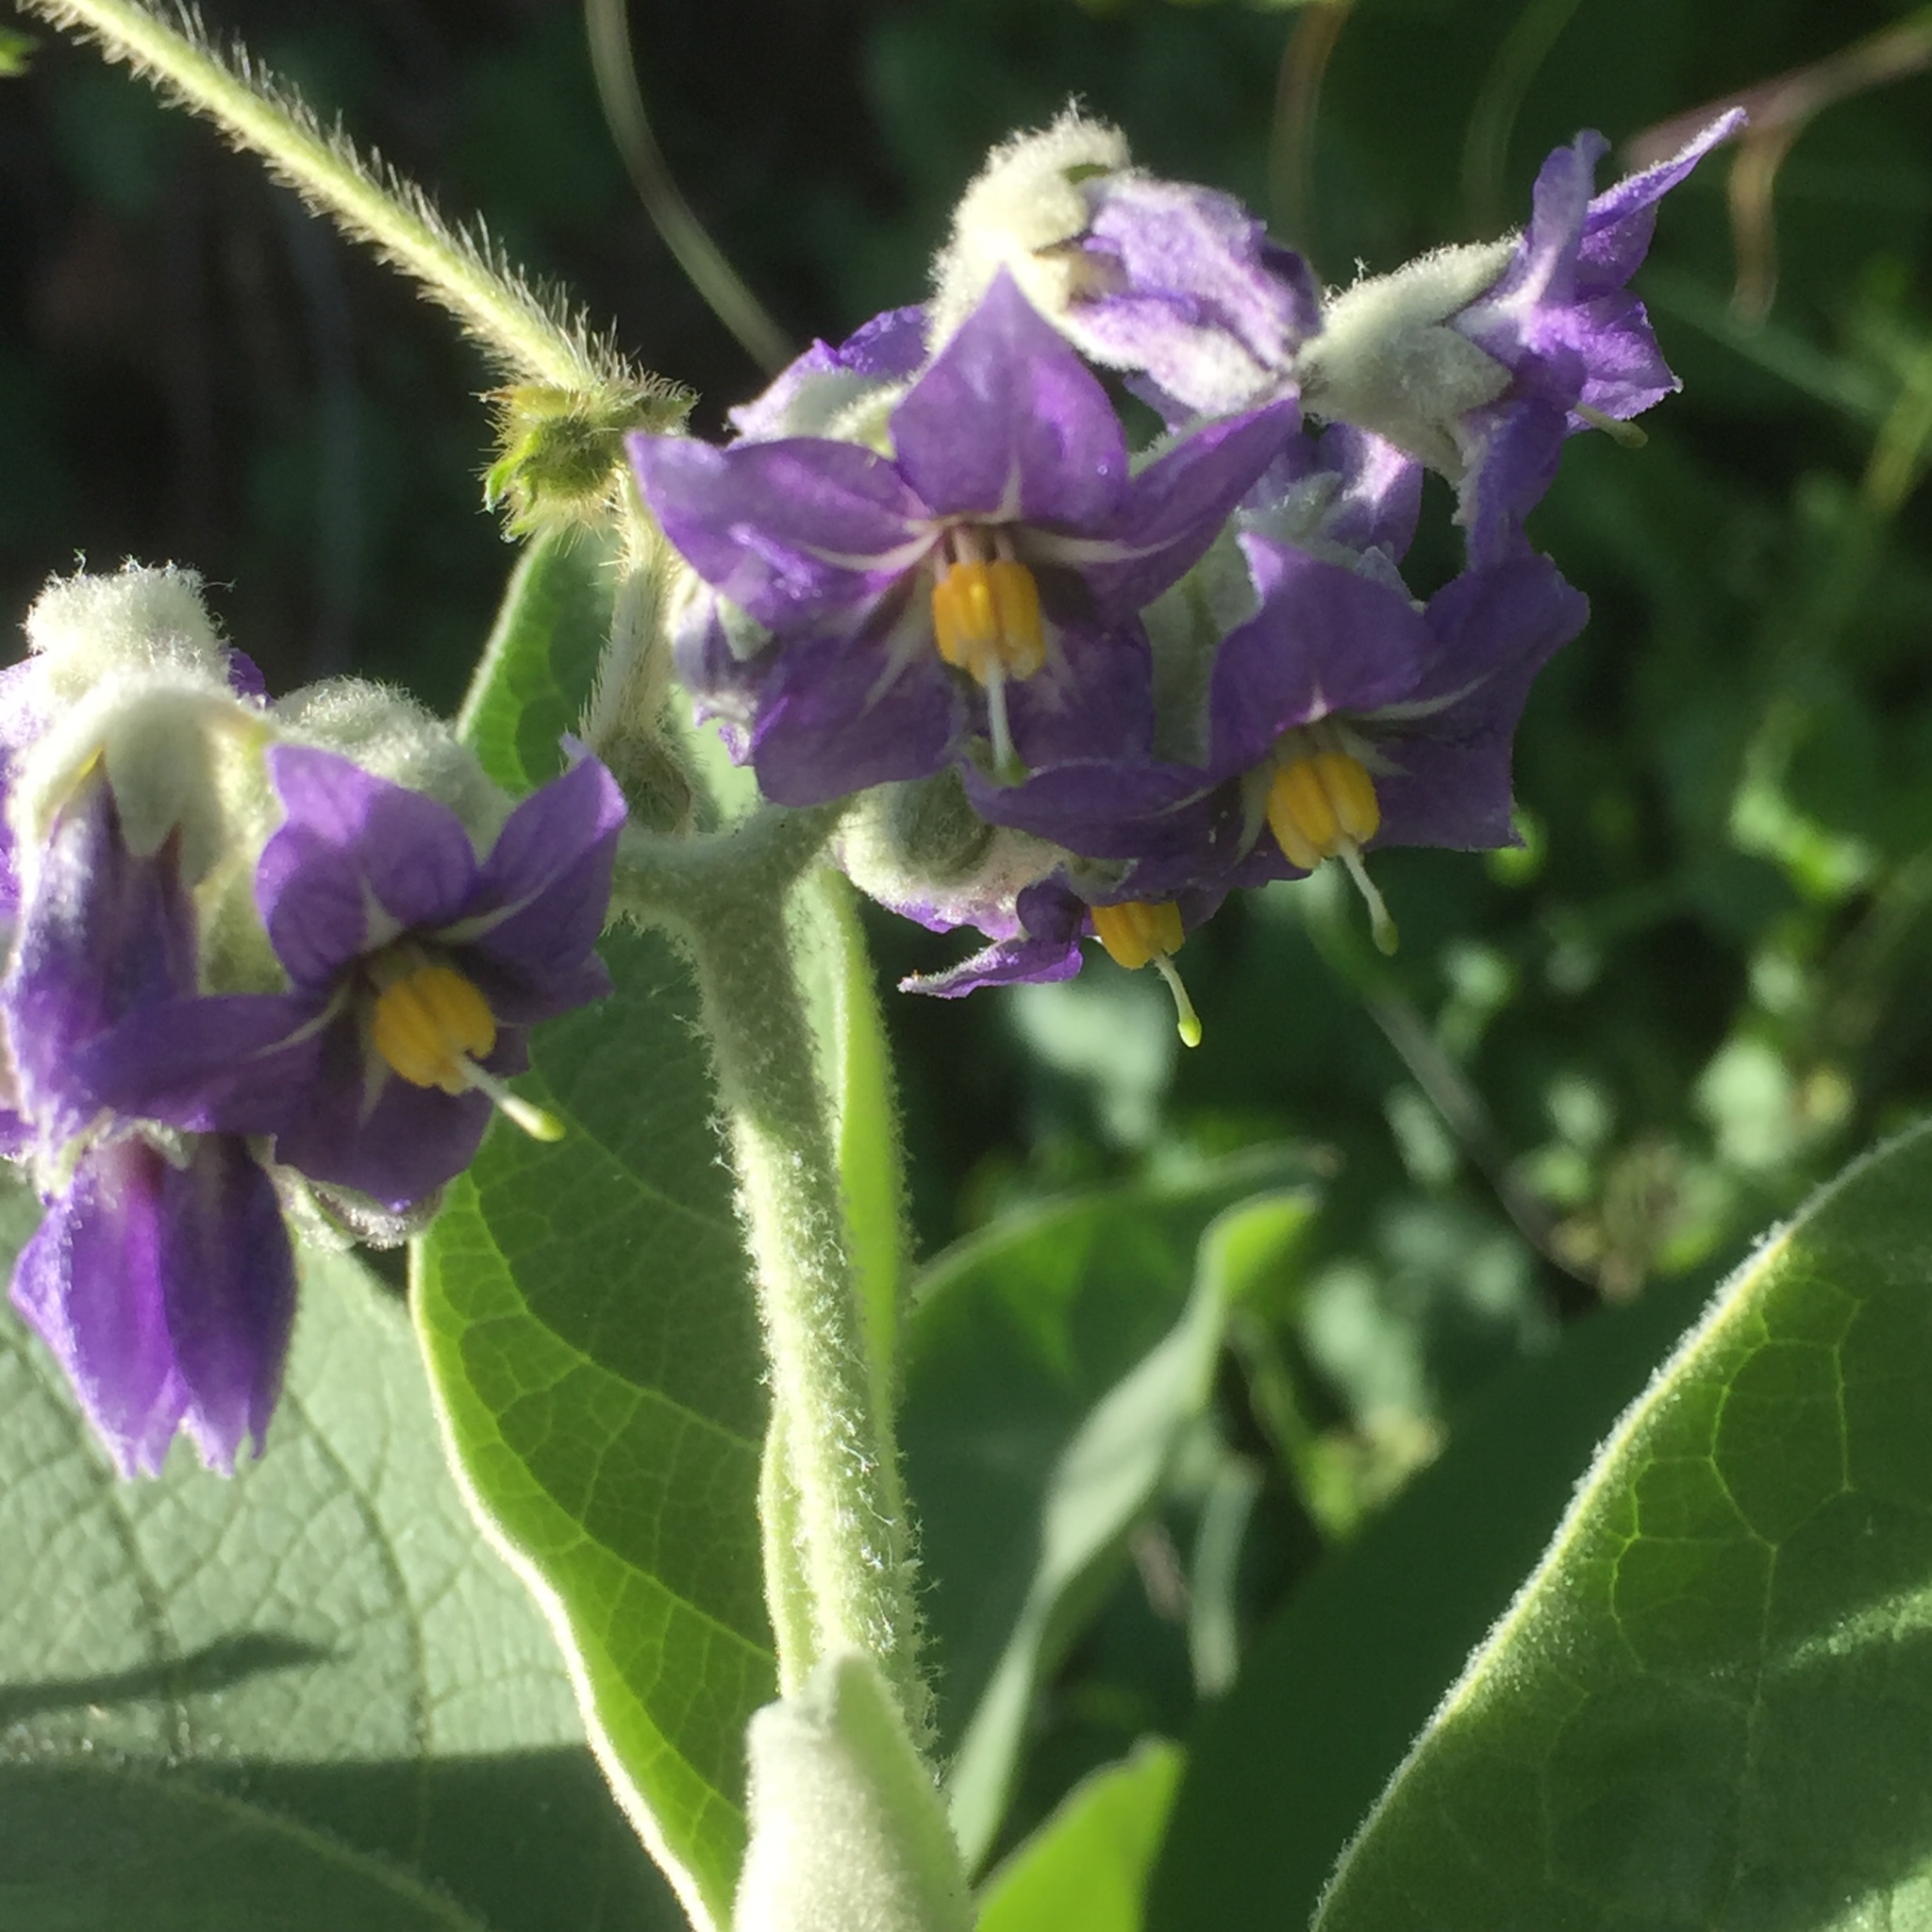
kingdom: Plantae
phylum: Tracheophyta
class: Magnoliopsida
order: Solanales
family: Solanaceae
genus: Solanum
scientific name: Solanum mauritianum
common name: Earleaf nightshade
